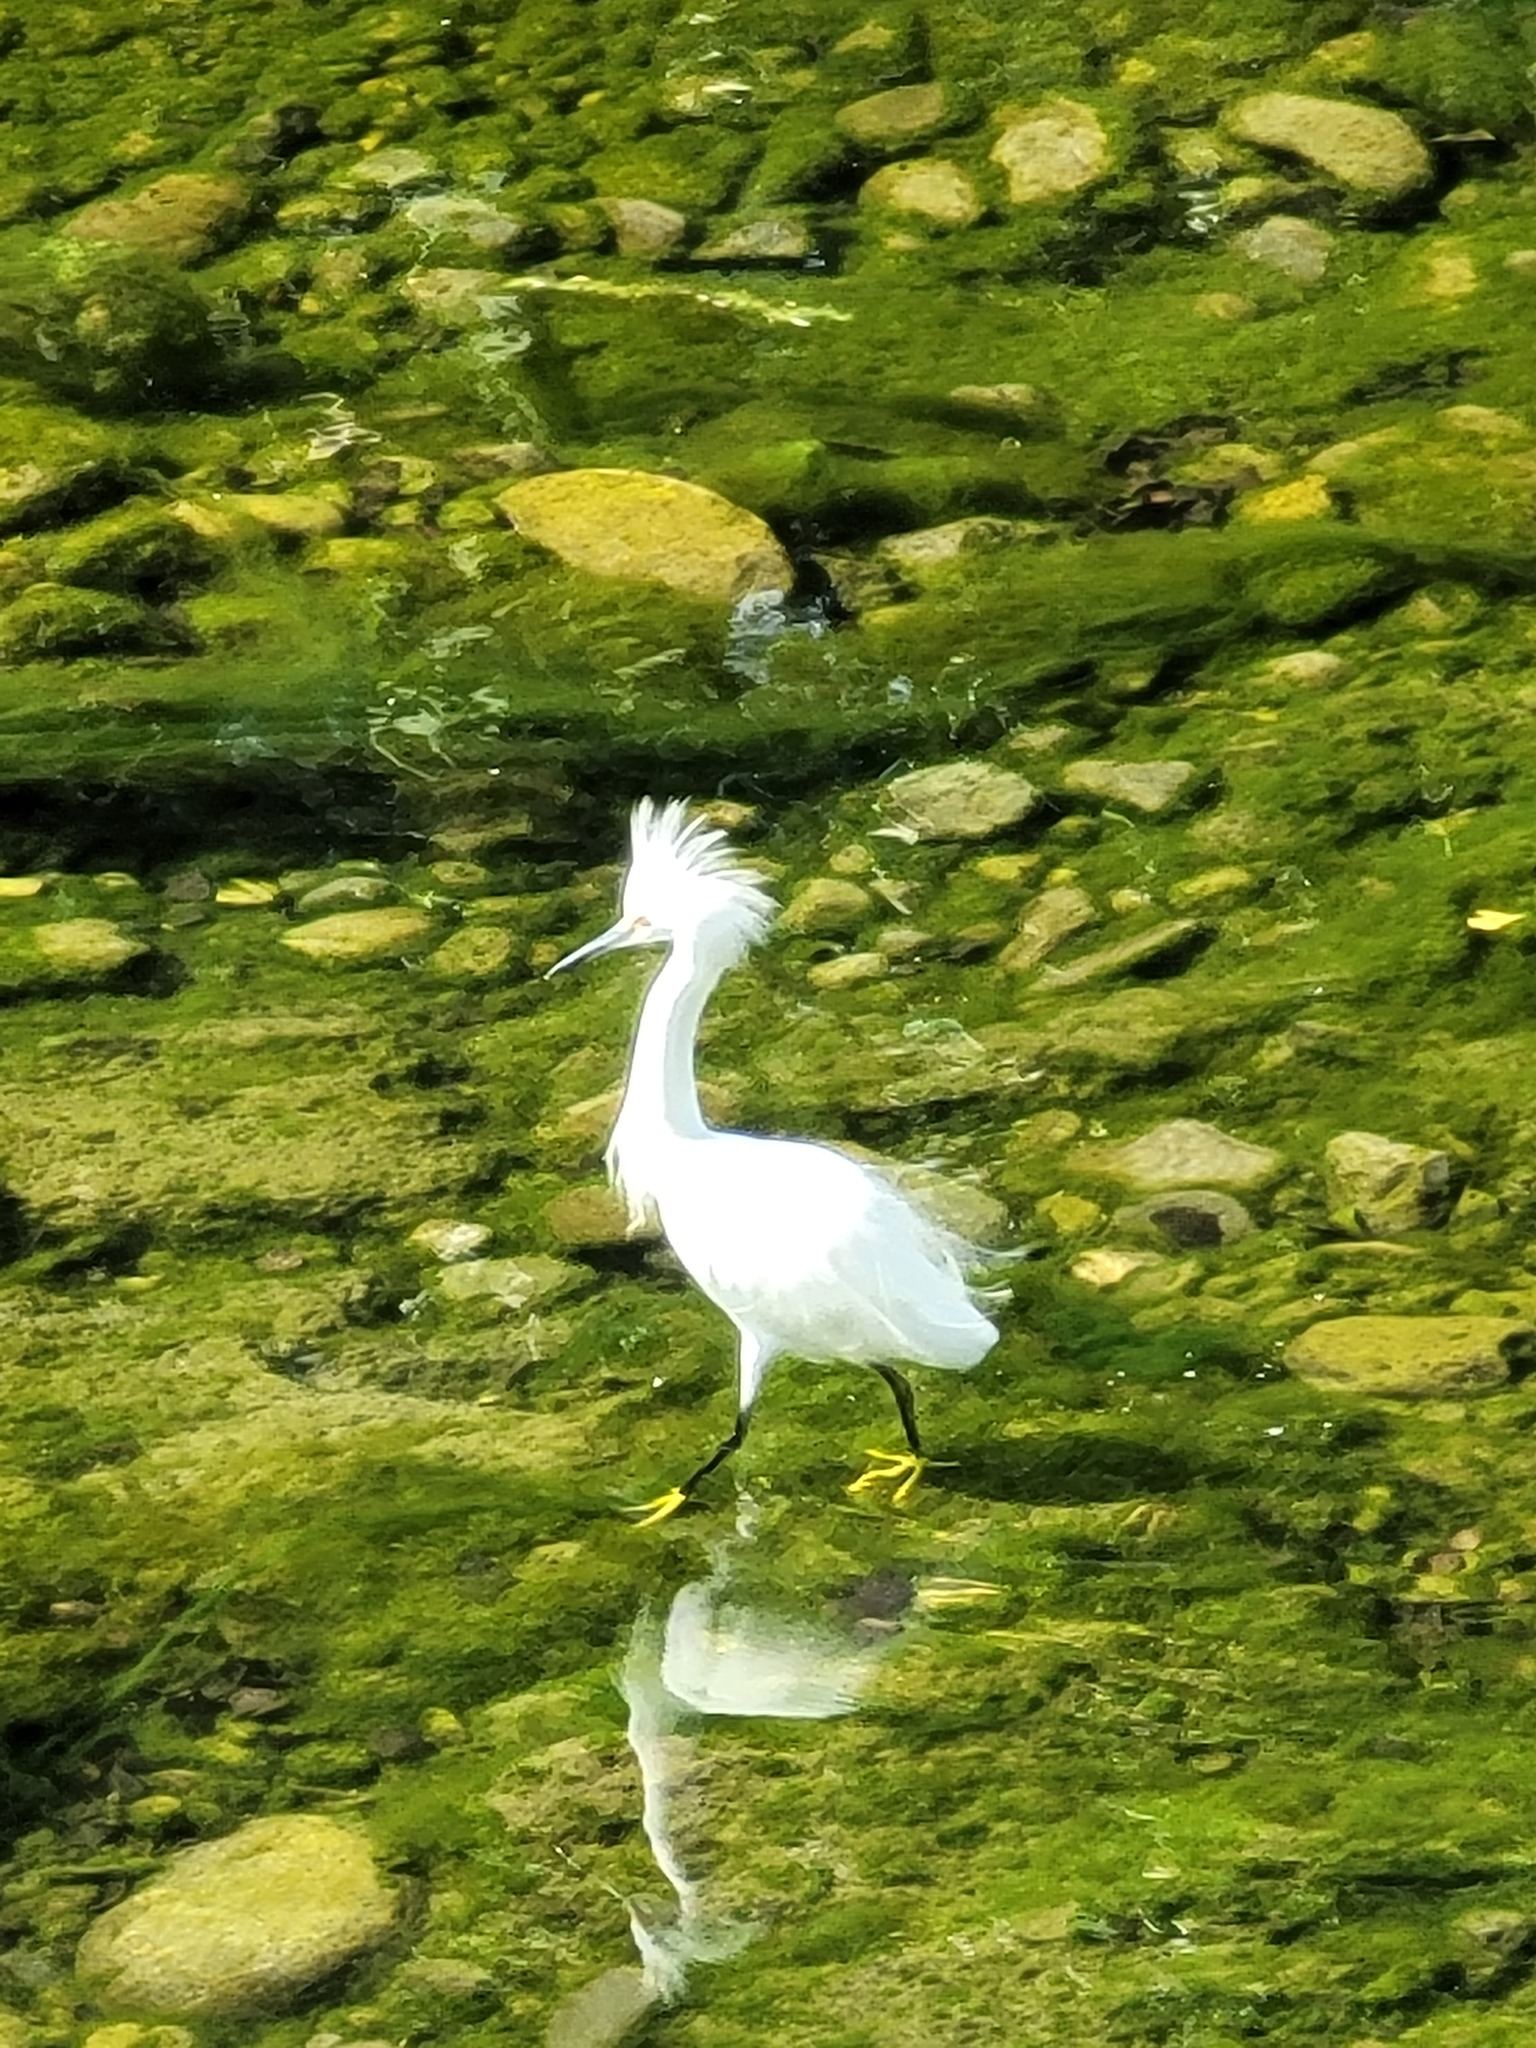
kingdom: Animalia
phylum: Chordata
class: Aves
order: Pelecaniformes
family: Ardeidae
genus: Egretta
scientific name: Egretta thula
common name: Snowy egret
